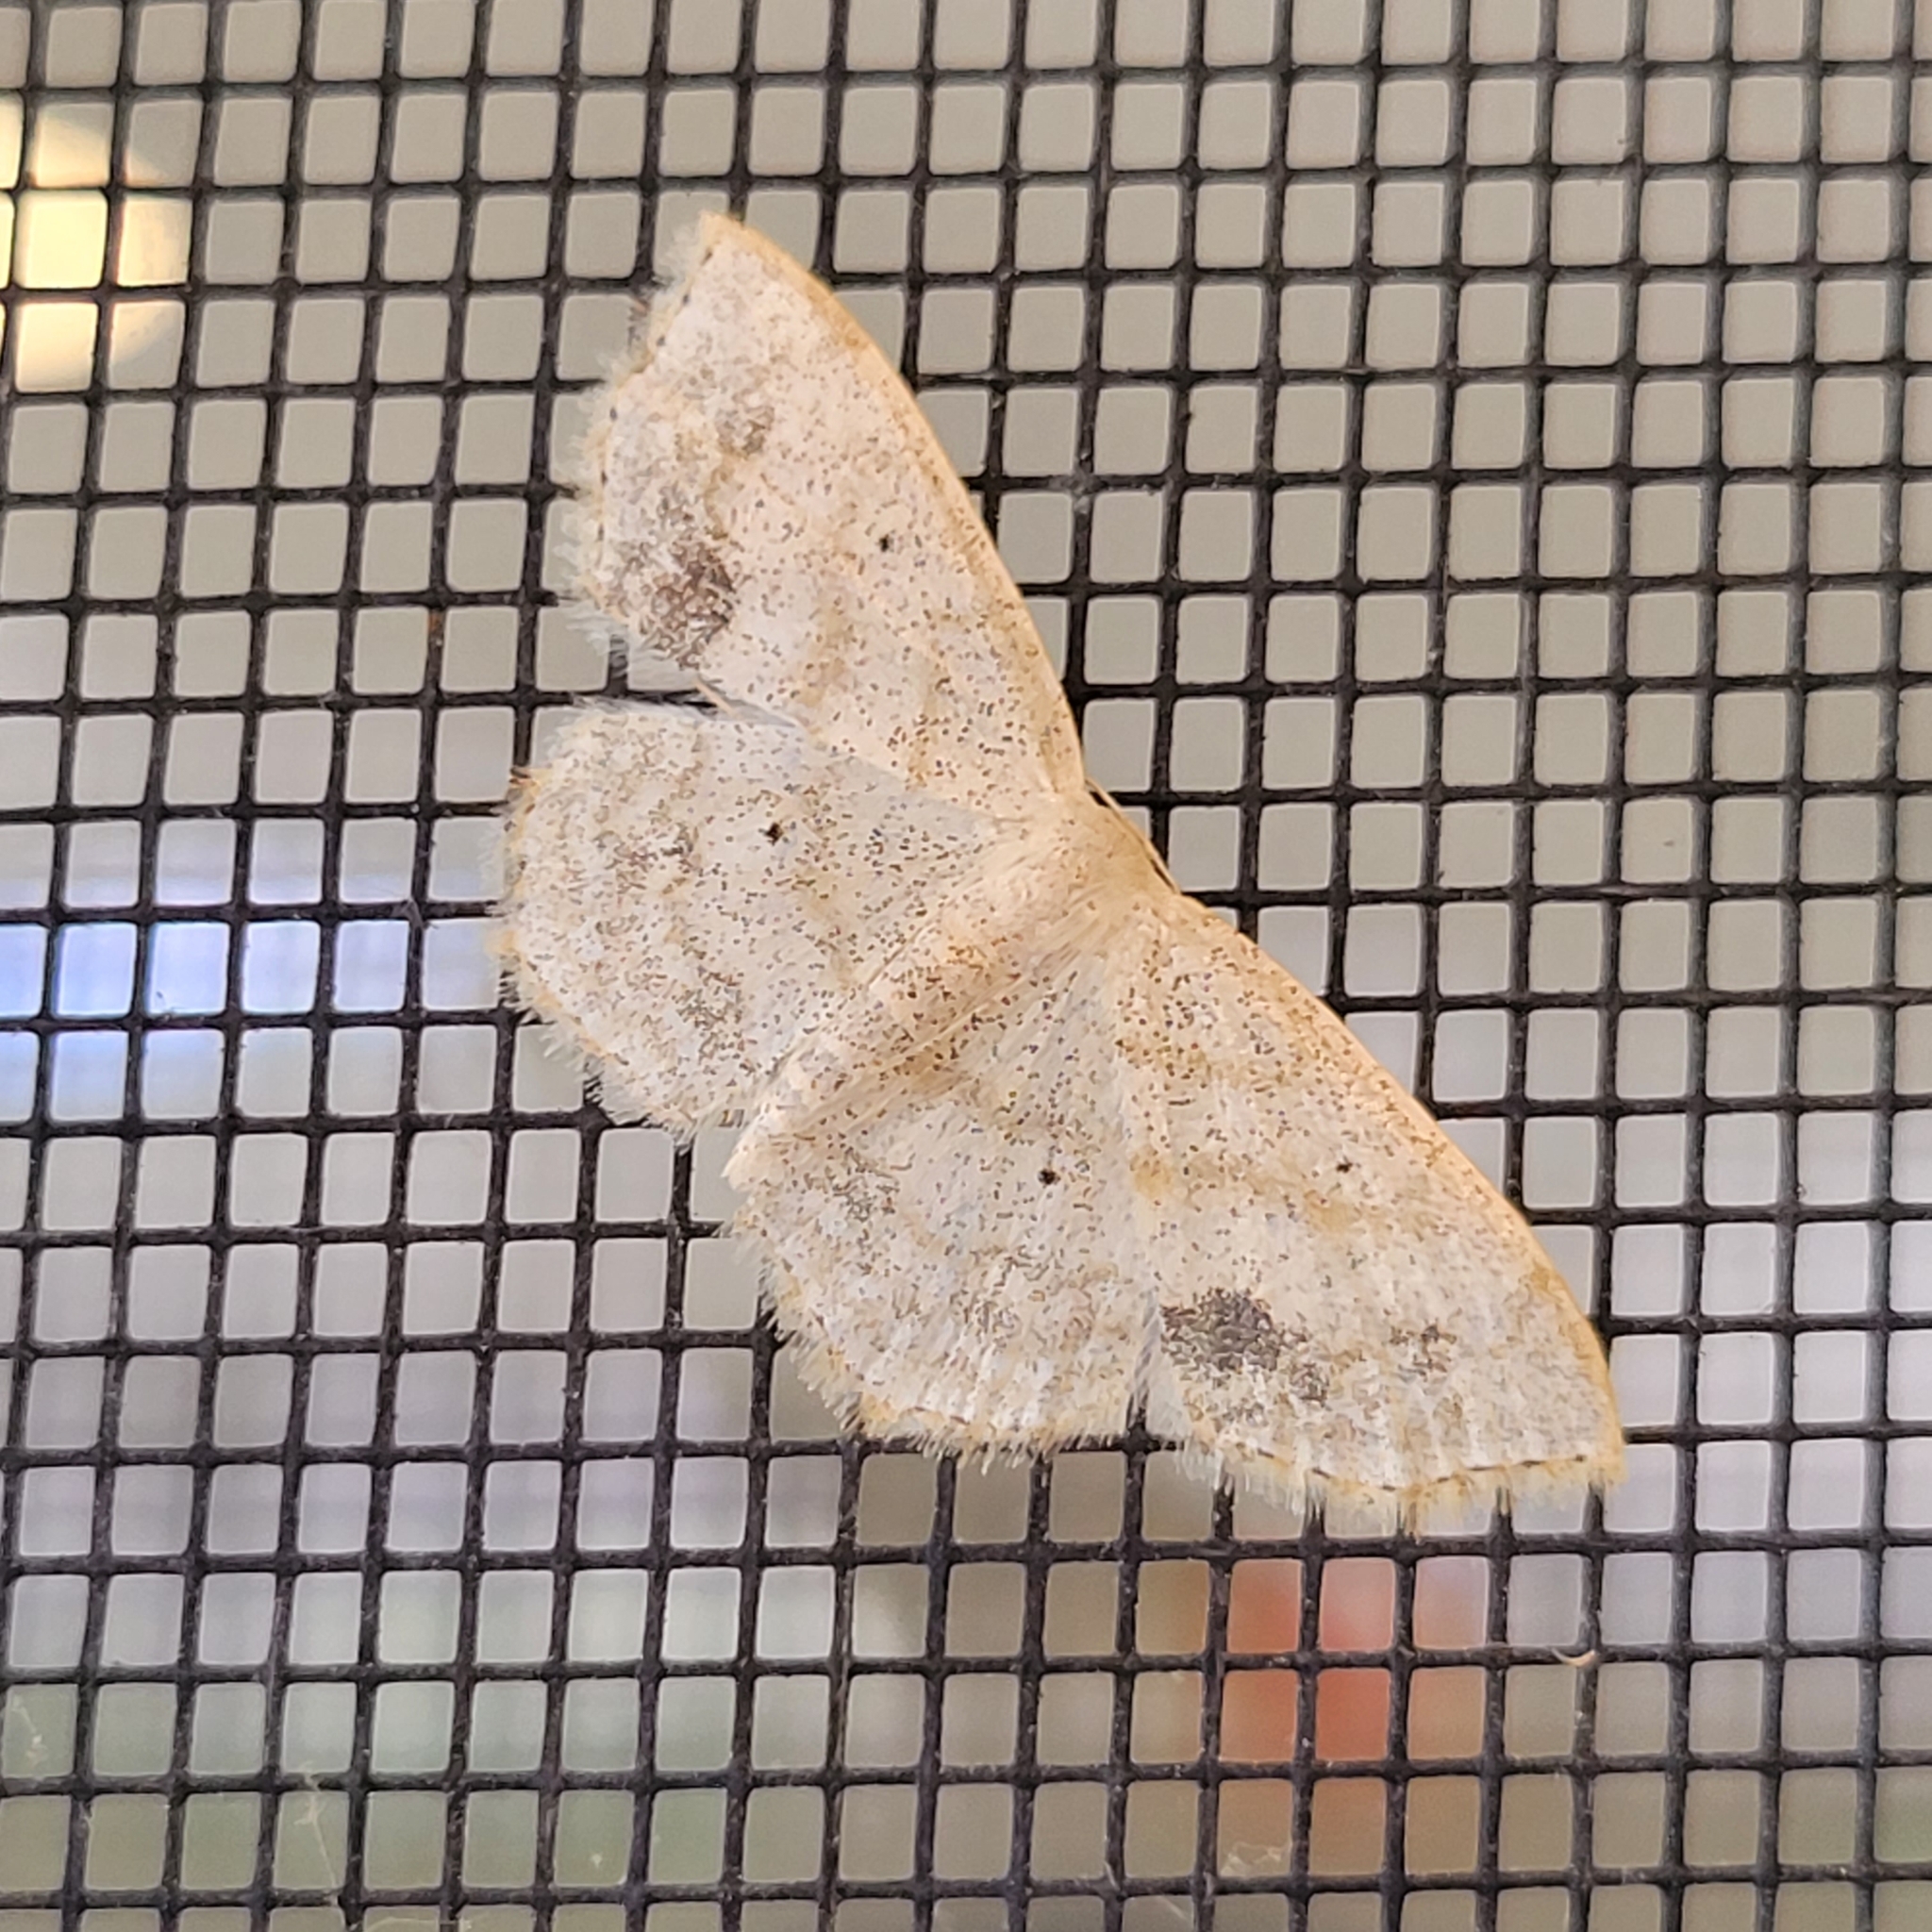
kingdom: Animalia
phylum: Arthropoda
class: Insecta
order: Lepidoptera
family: Geometridae
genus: Scopula
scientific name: Scopula limboundata
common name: Large lace border
